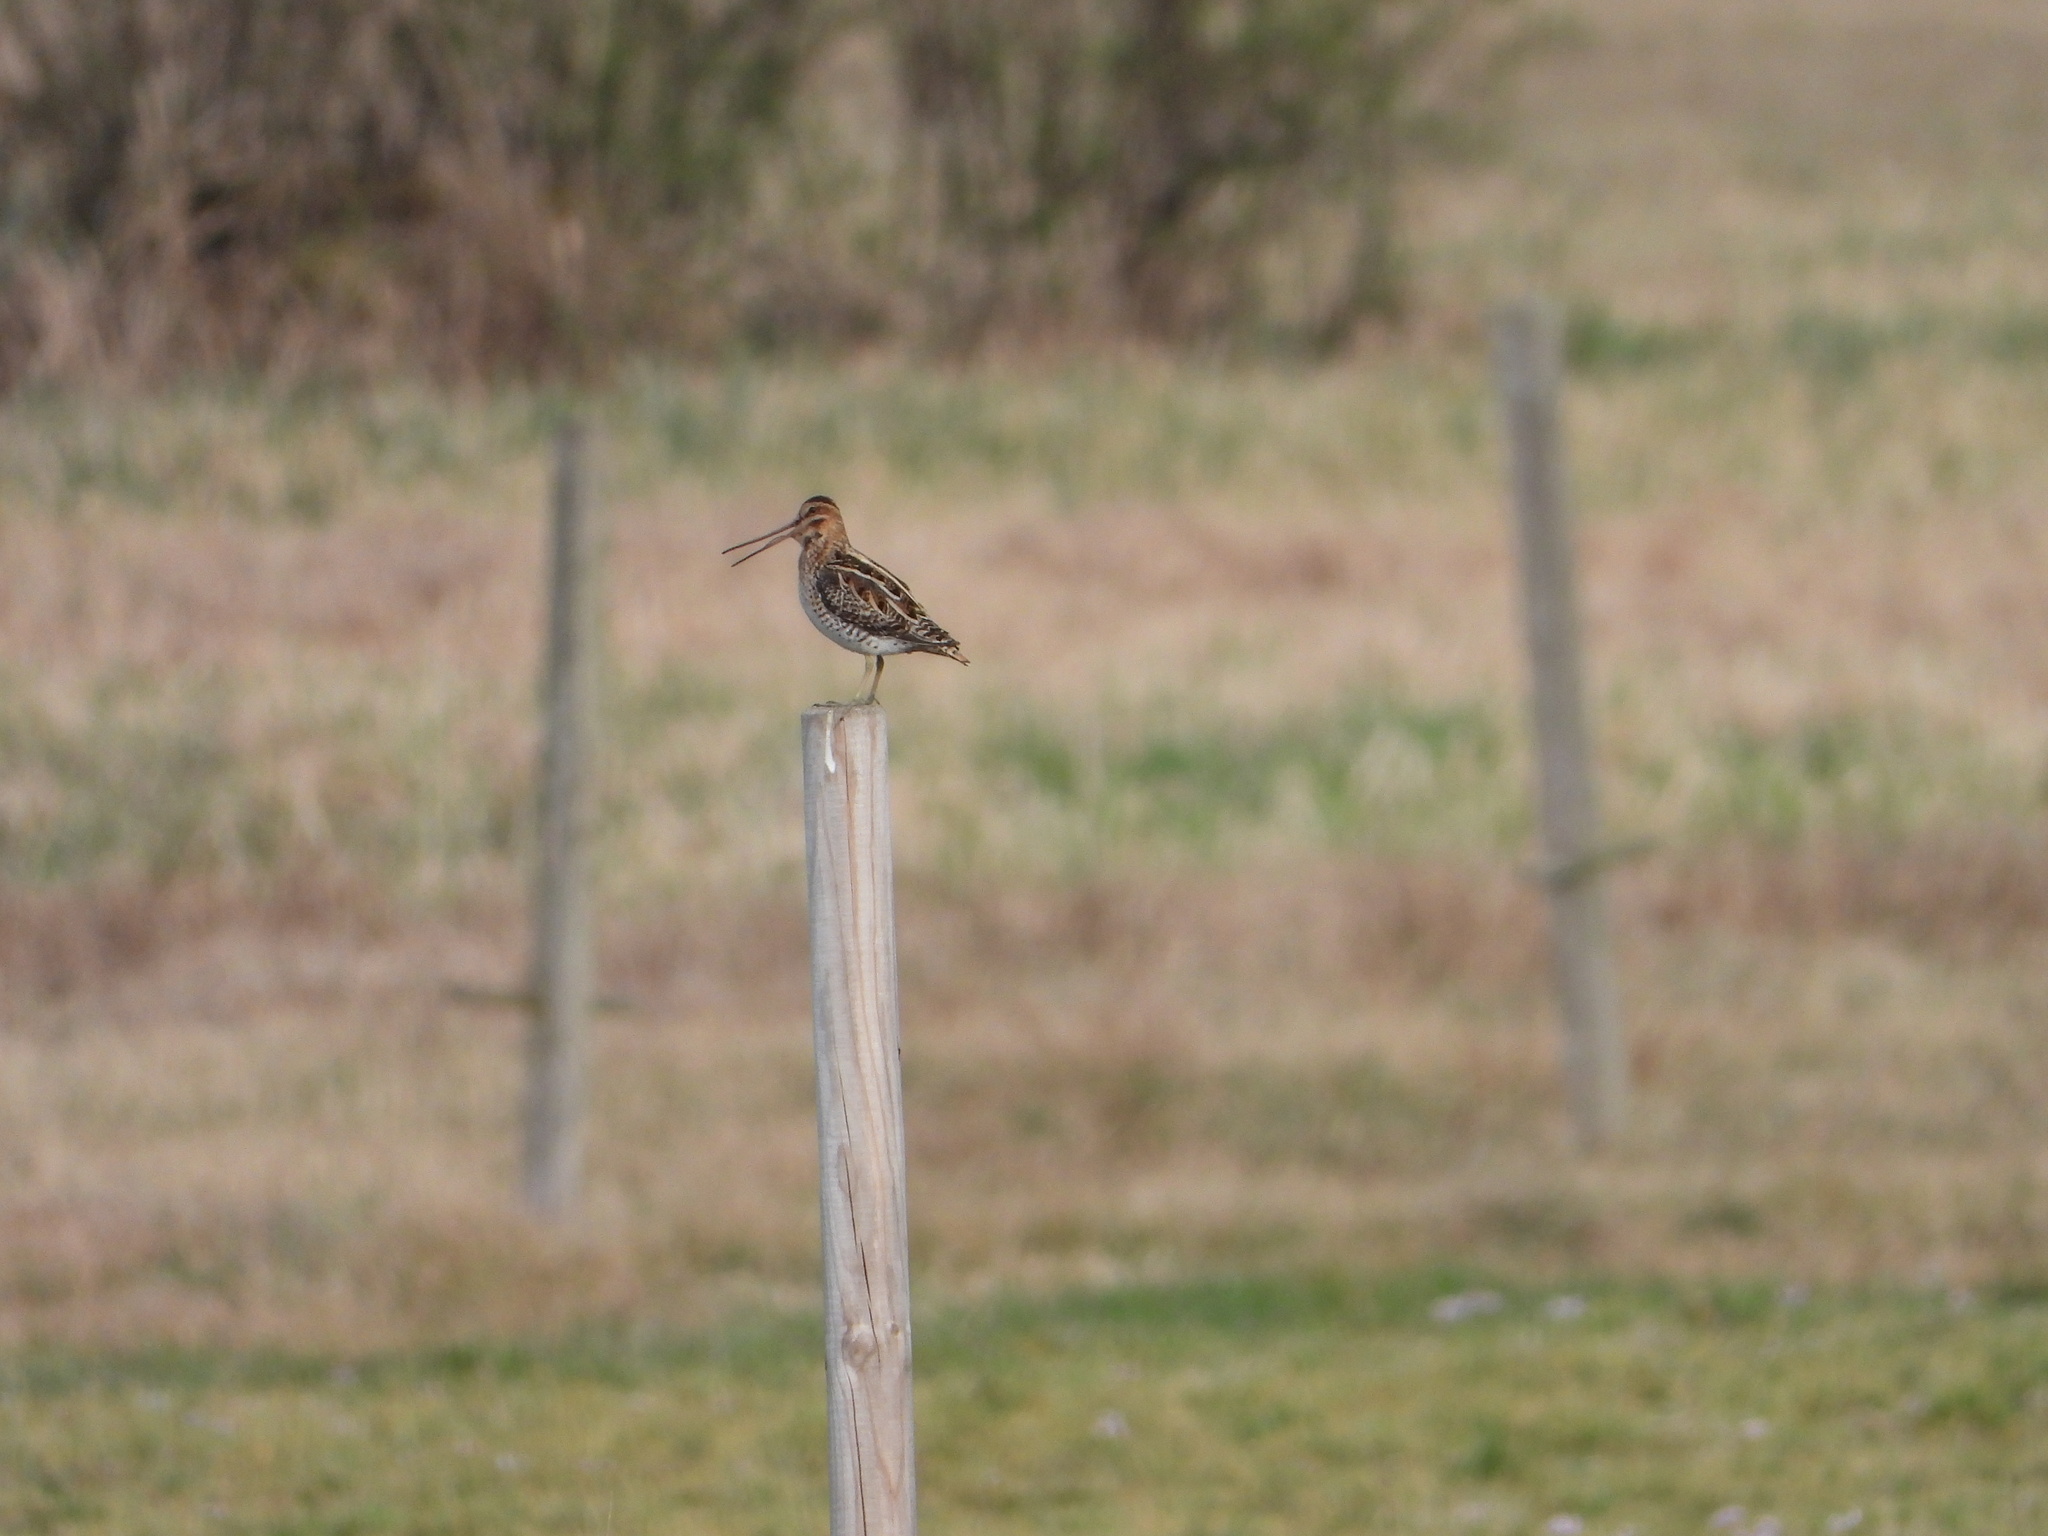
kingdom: Animalia
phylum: Chordata
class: Aves
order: Charadriiformes
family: Scolopacidae
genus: Gallinago
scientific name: Gallinago gallinago
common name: Common snipe
